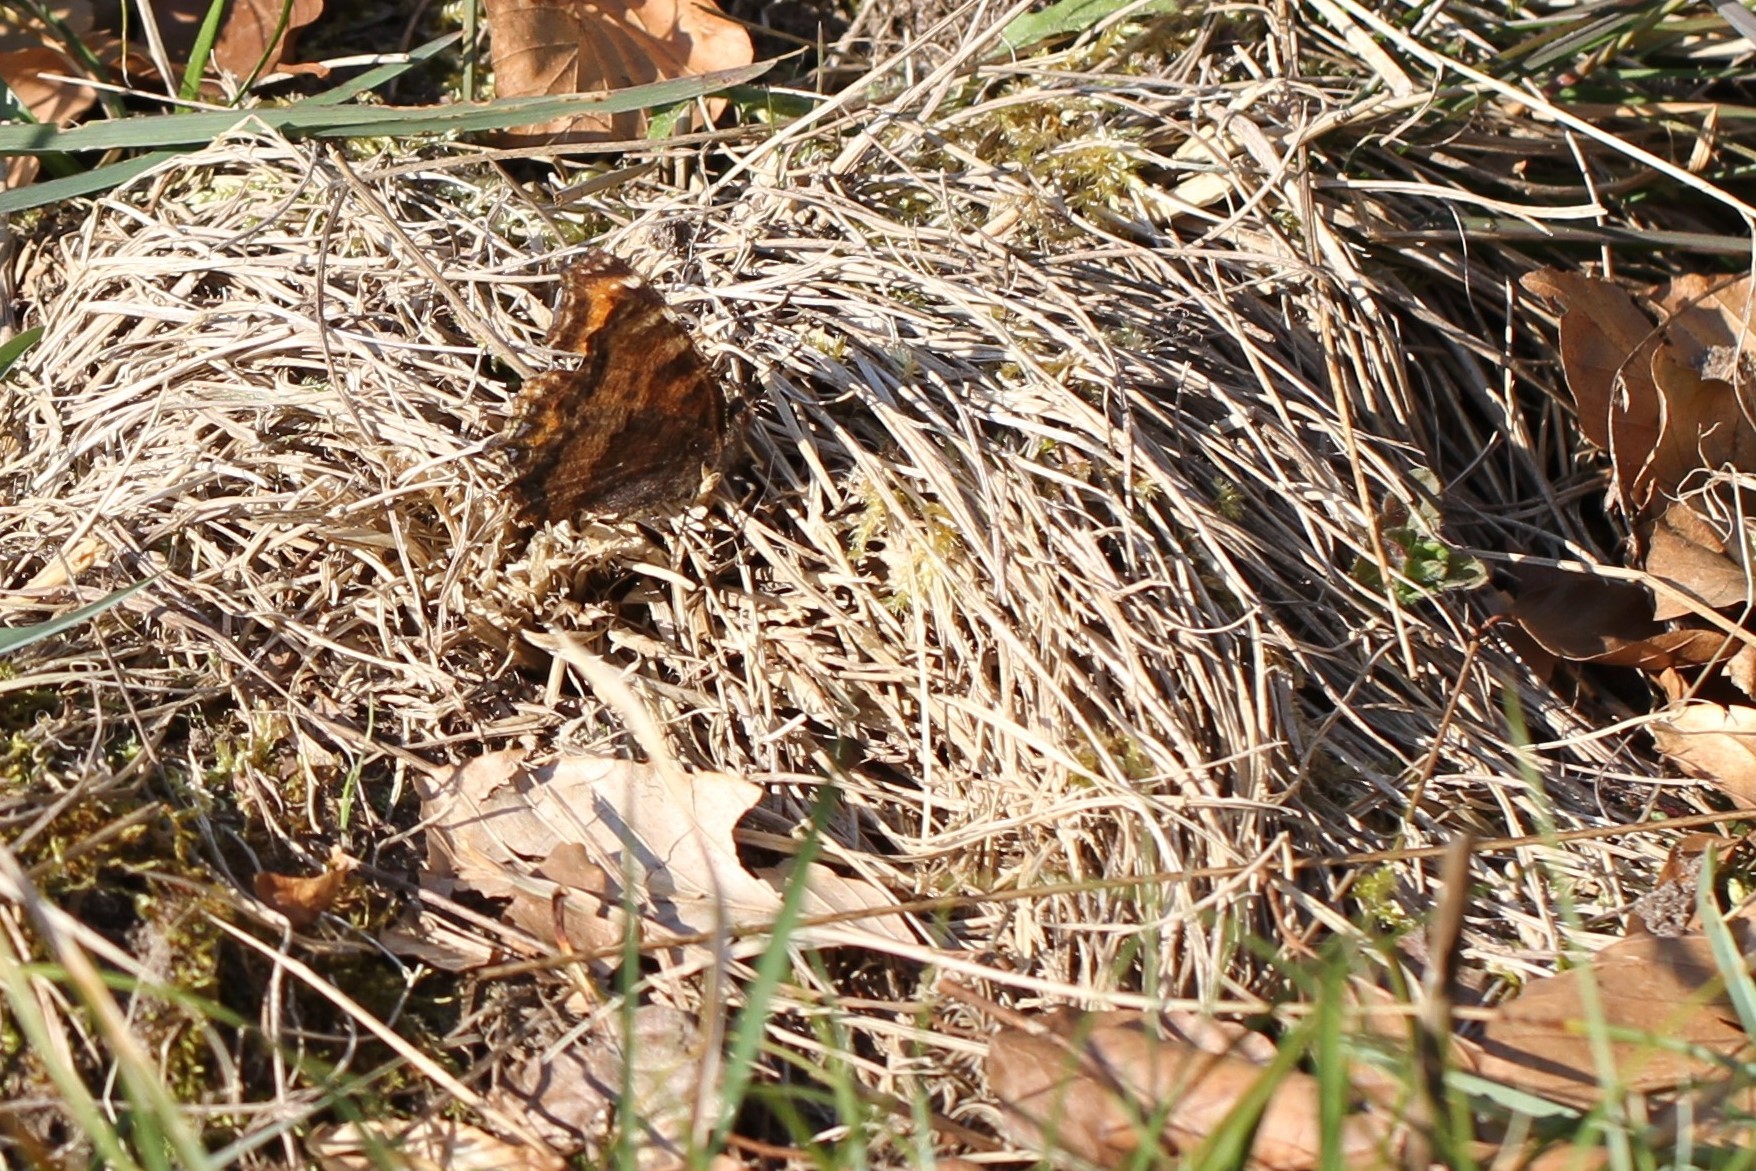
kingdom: Animalia
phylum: Arthropoda
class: Insecta
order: Lepidoptera
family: Nymphalidae
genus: Nymphalis
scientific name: Nymphalis polychloros
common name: Large tortoiseshell
